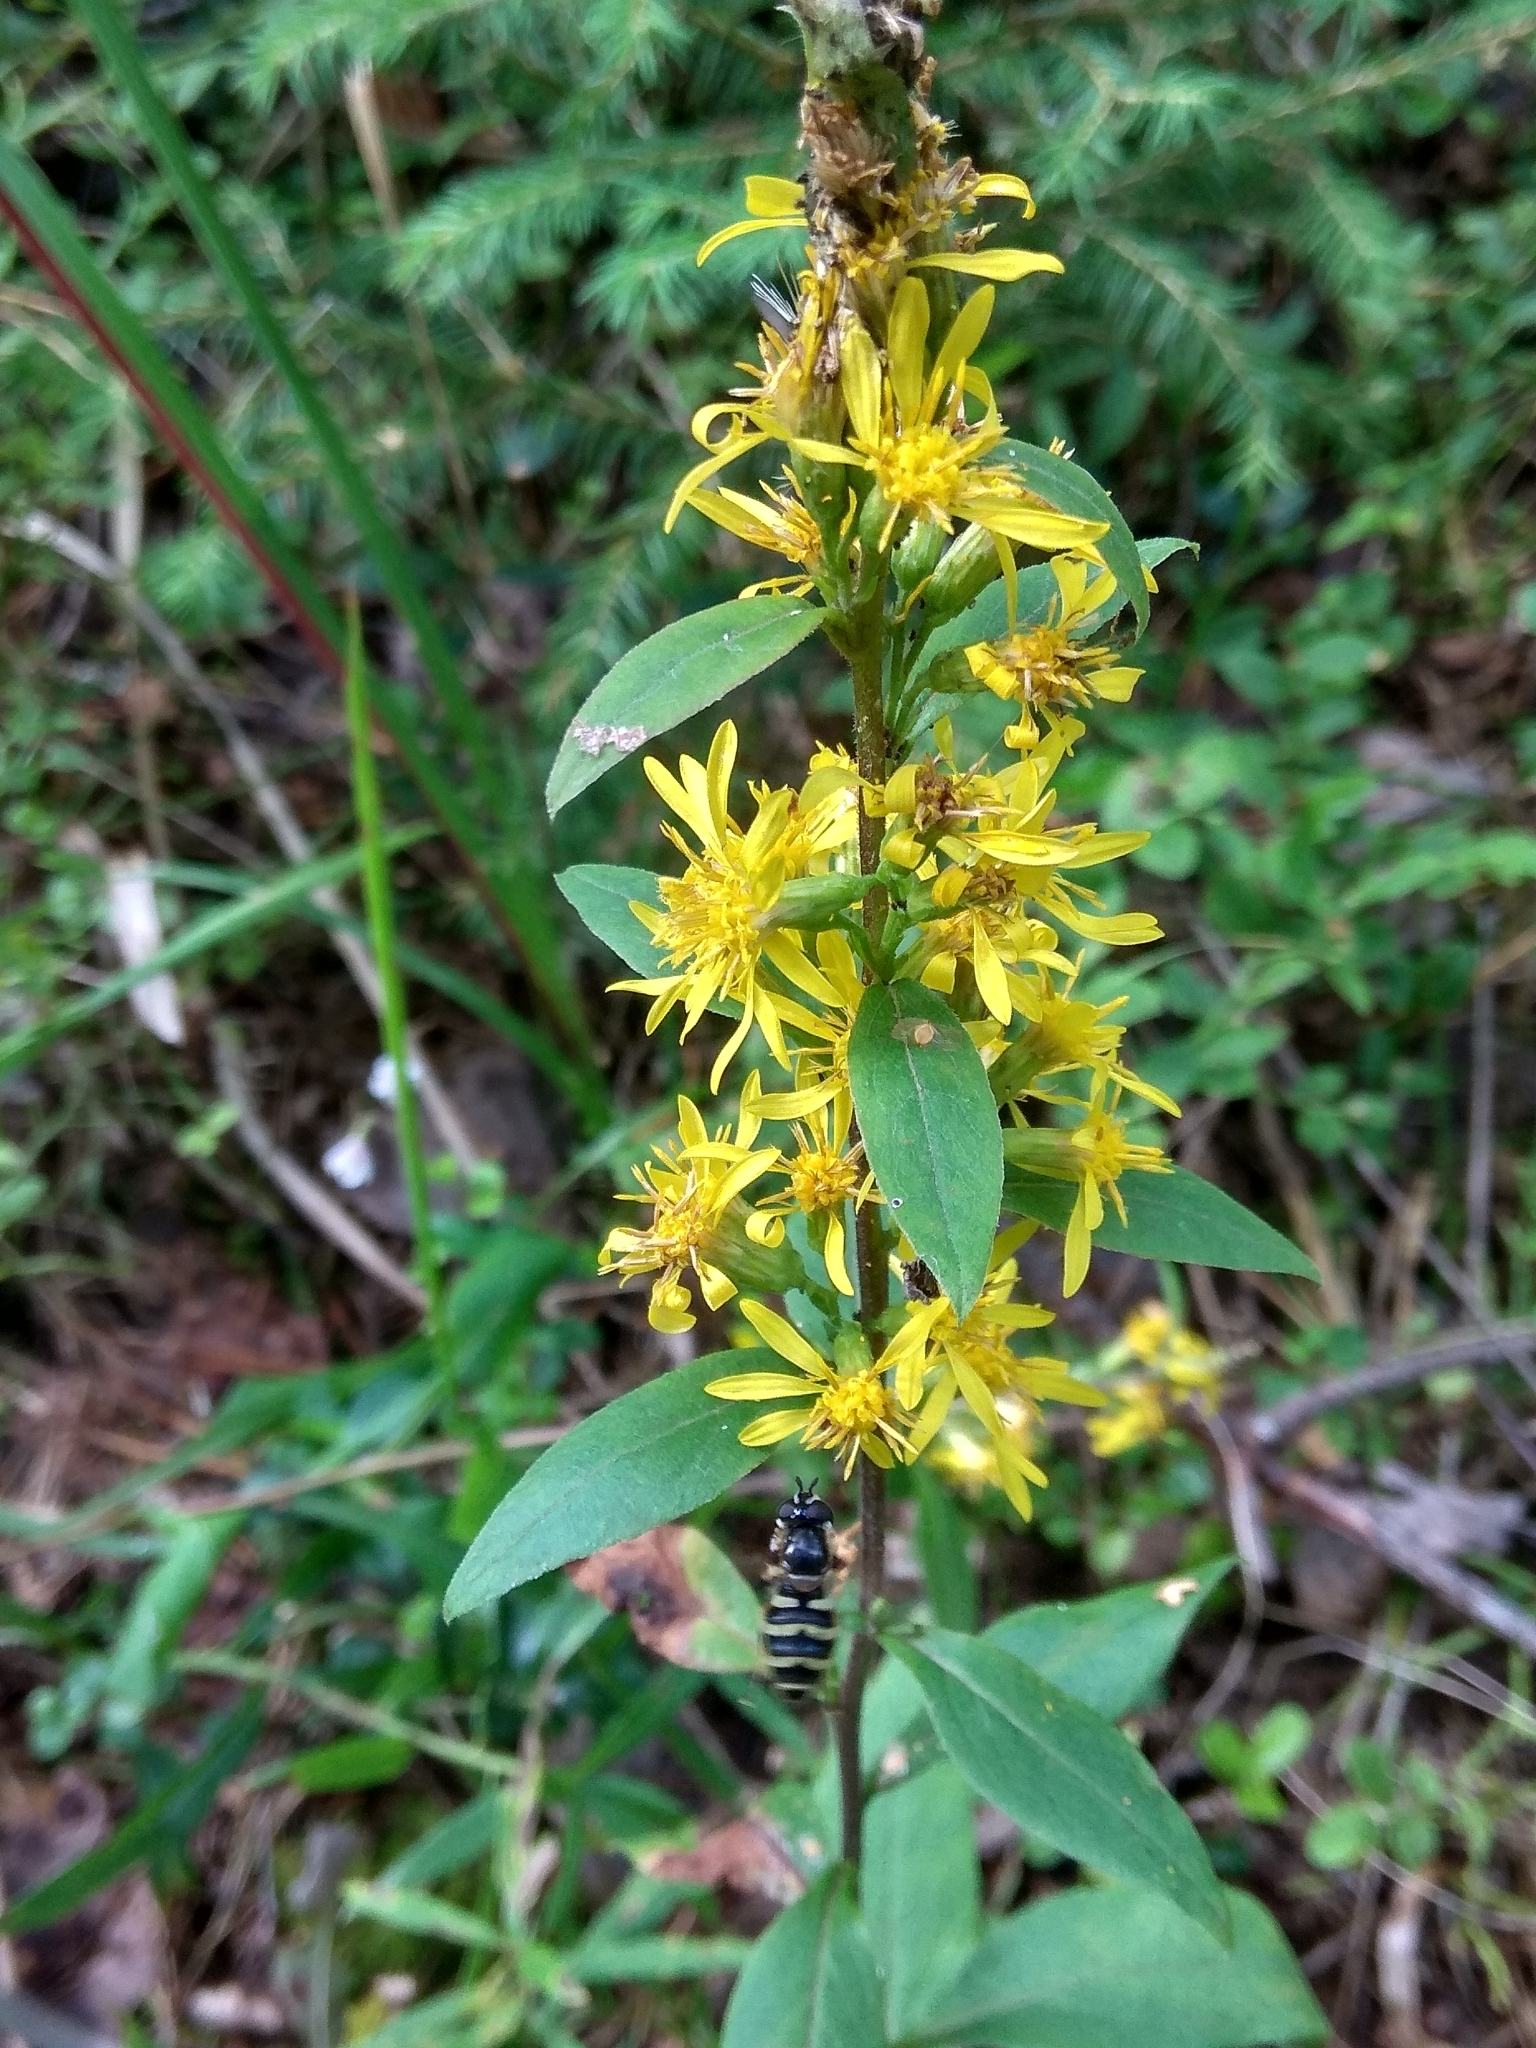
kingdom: Plantae
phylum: Tracheophyta
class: Magnoliopsida
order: Asterales
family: Asteraceae
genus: Solidago
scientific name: Solidago virgaurea
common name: Goldenrod
